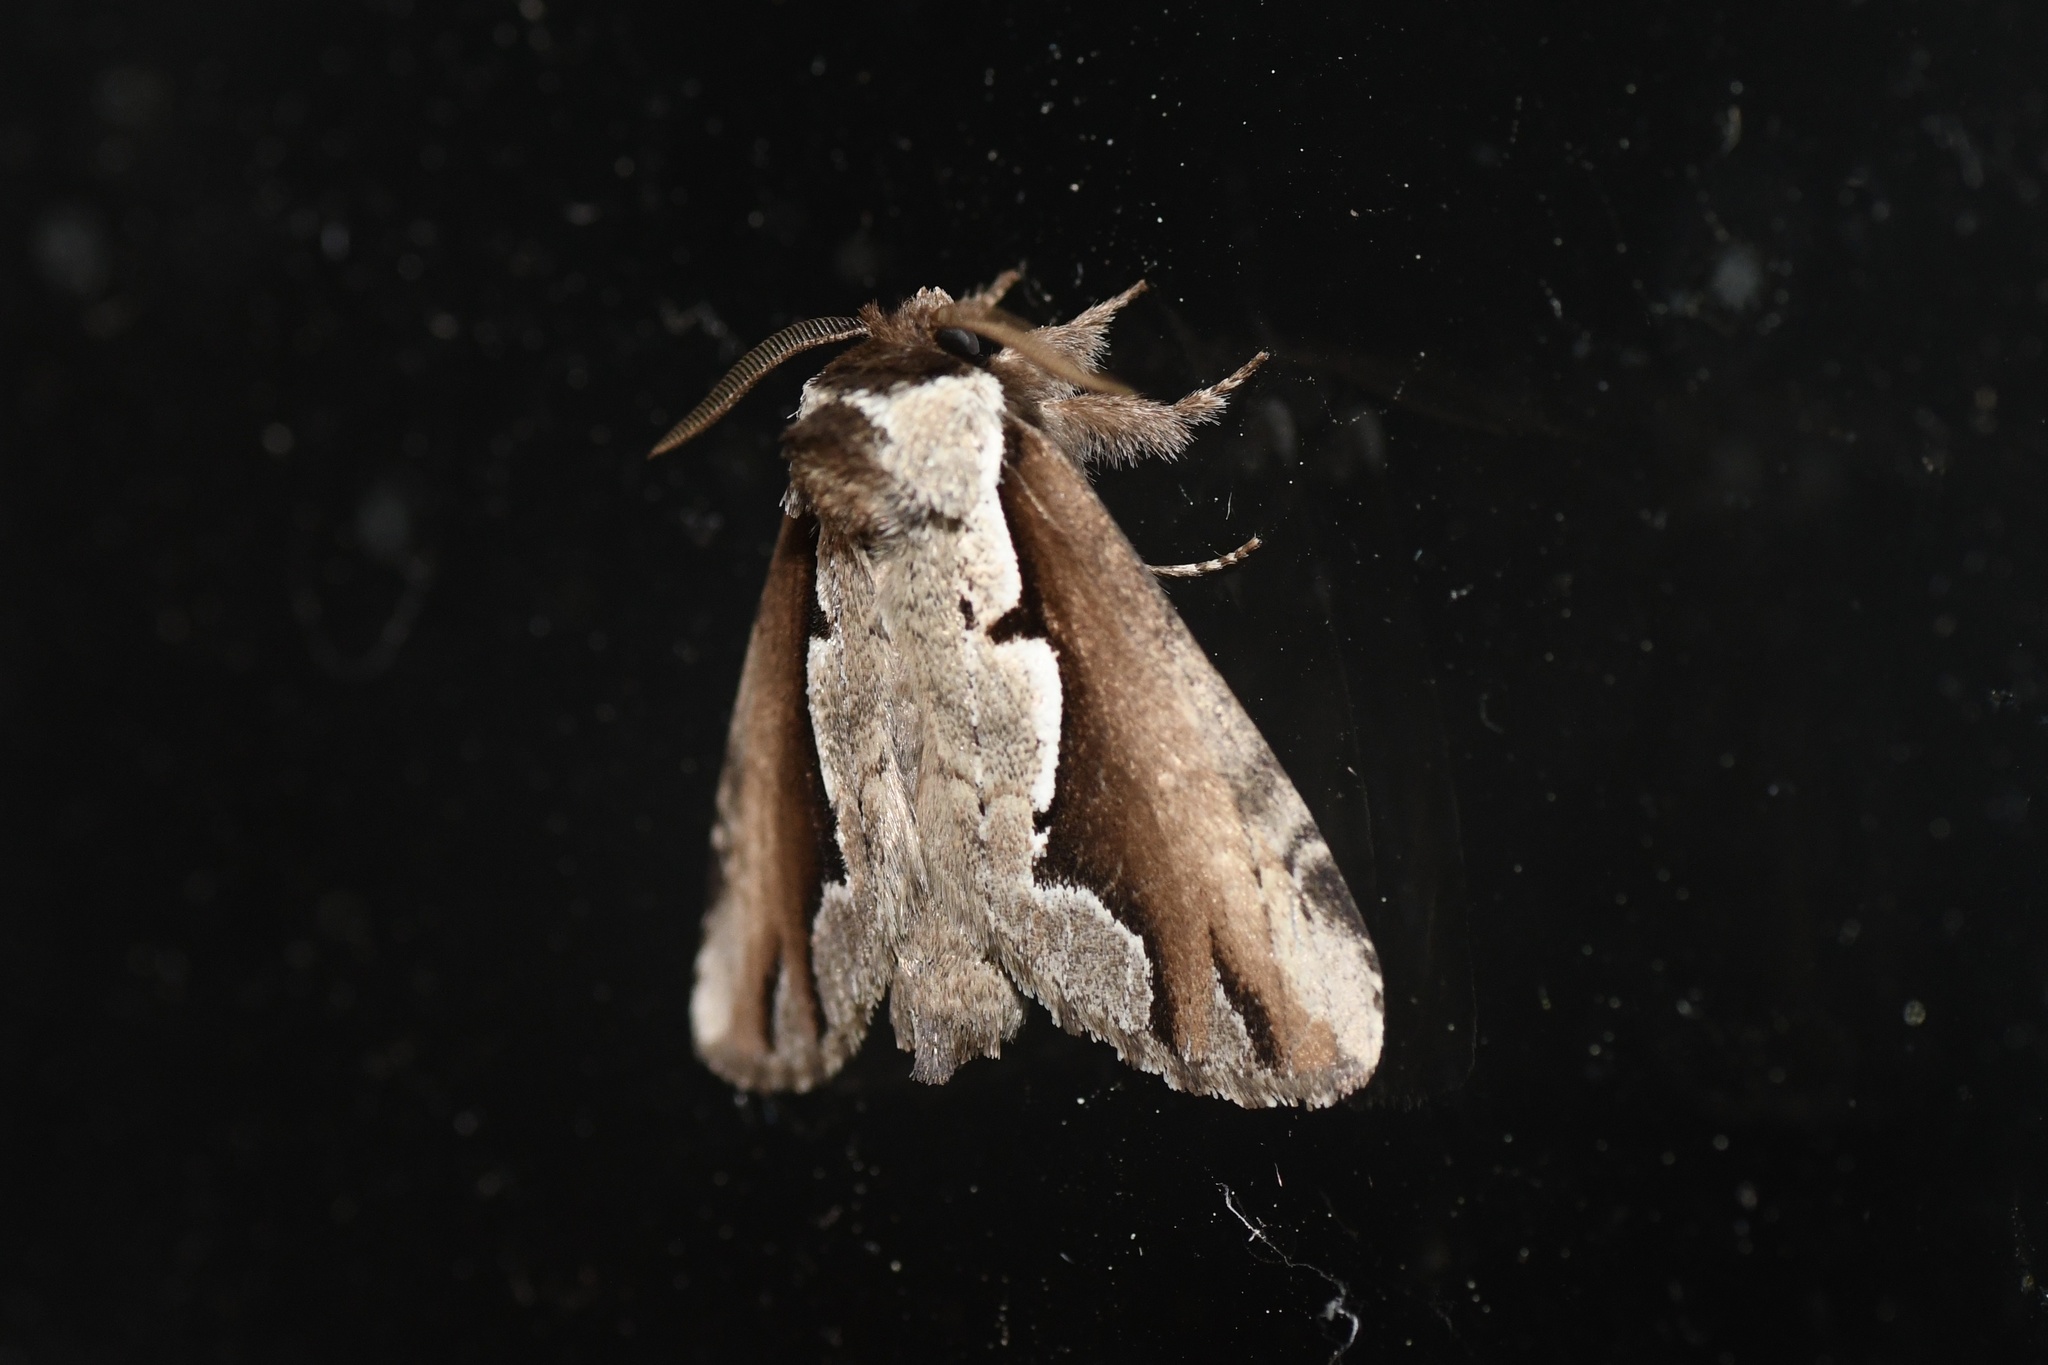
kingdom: Animalia
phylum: Arthropoda
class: Insecta
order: Lepidoptera
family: Notodontidae
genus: Nerice
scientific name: Nerice bidentata
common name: Double-toothed prominent
